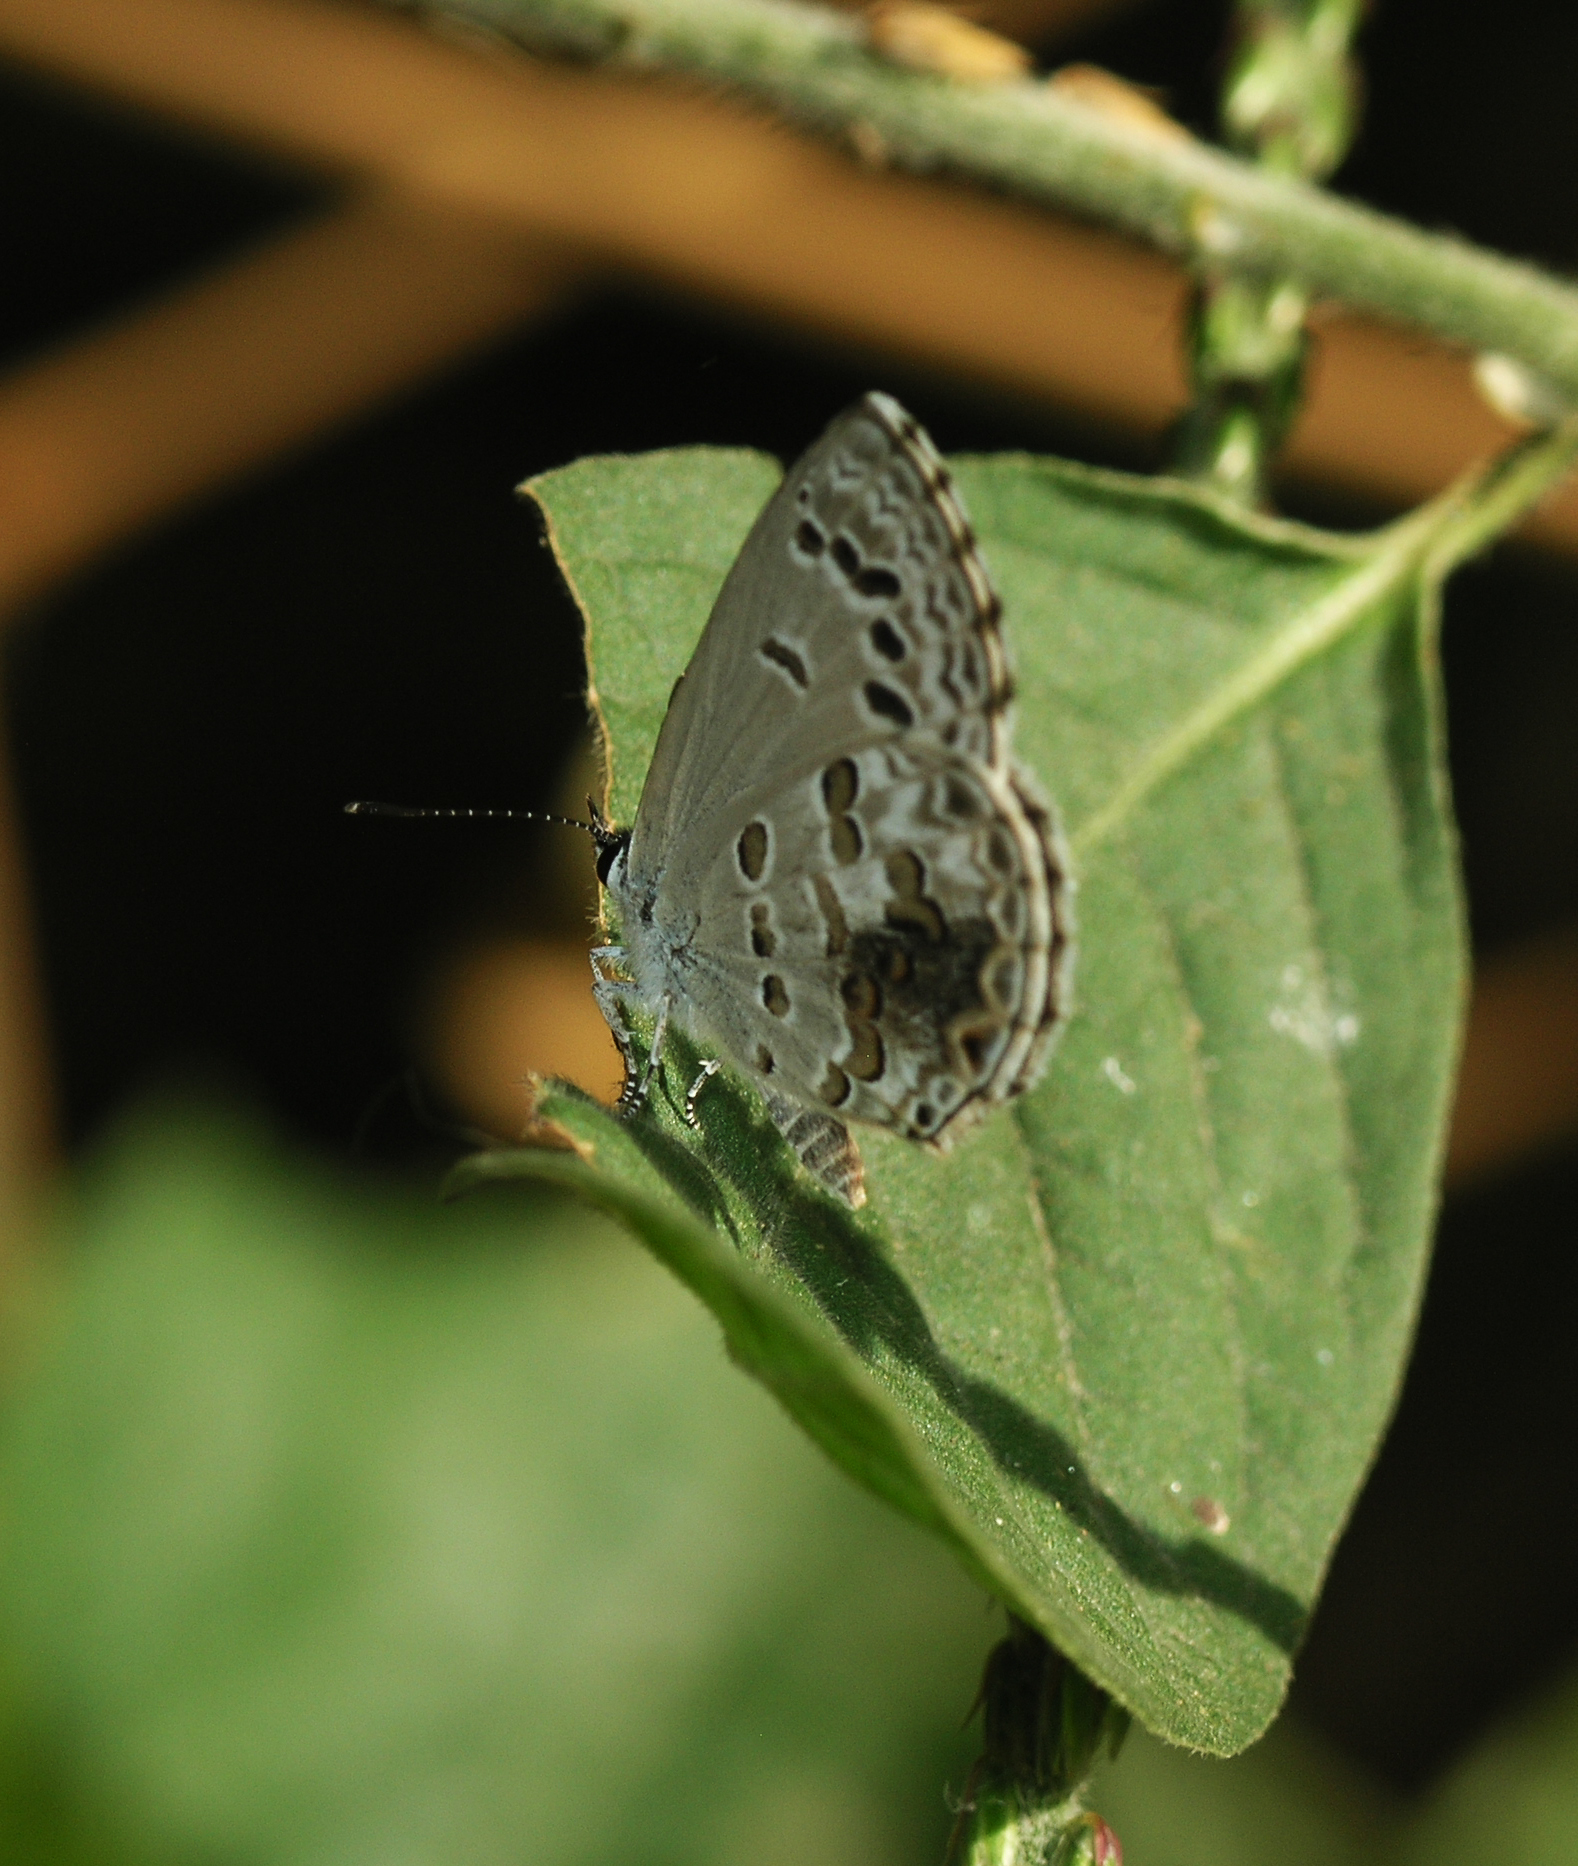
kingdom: Animalia
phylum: Arthropoda
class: Insecta
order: Lepidoptera
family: Lycaenidae
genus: Chilades
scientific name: Chilades laius
